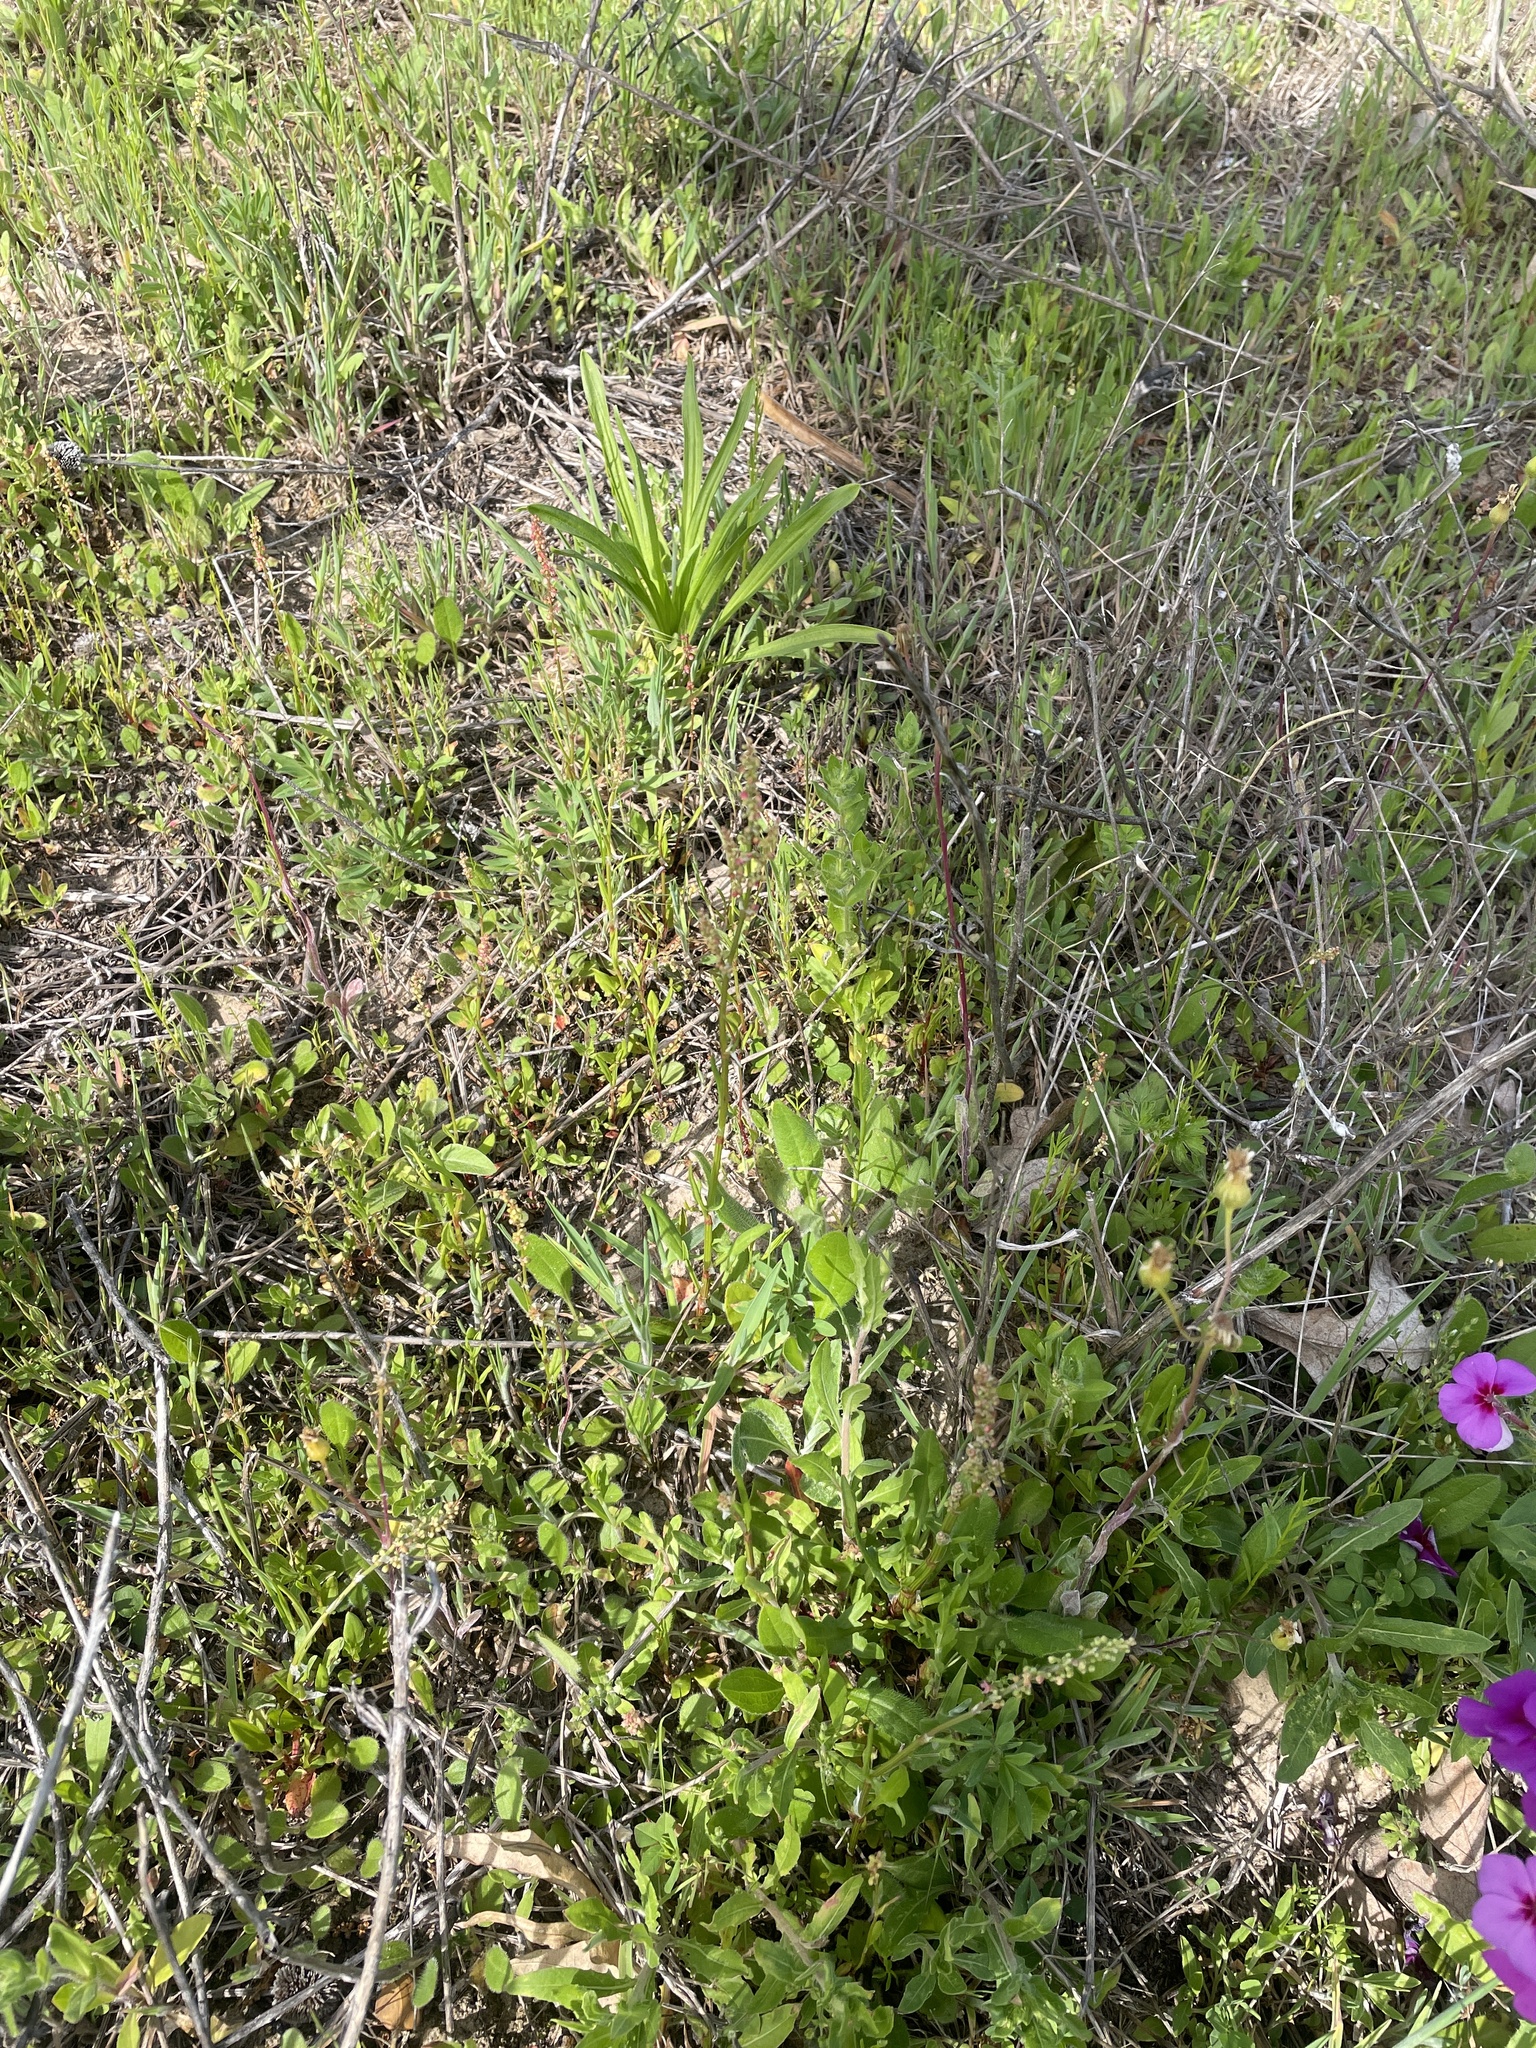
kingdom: Plantae
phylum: Tracheophyta
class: Magnoliopsida
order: Caryophyllales
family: Polygonaceae
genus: Rumex
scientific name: Rumex hastatulus
